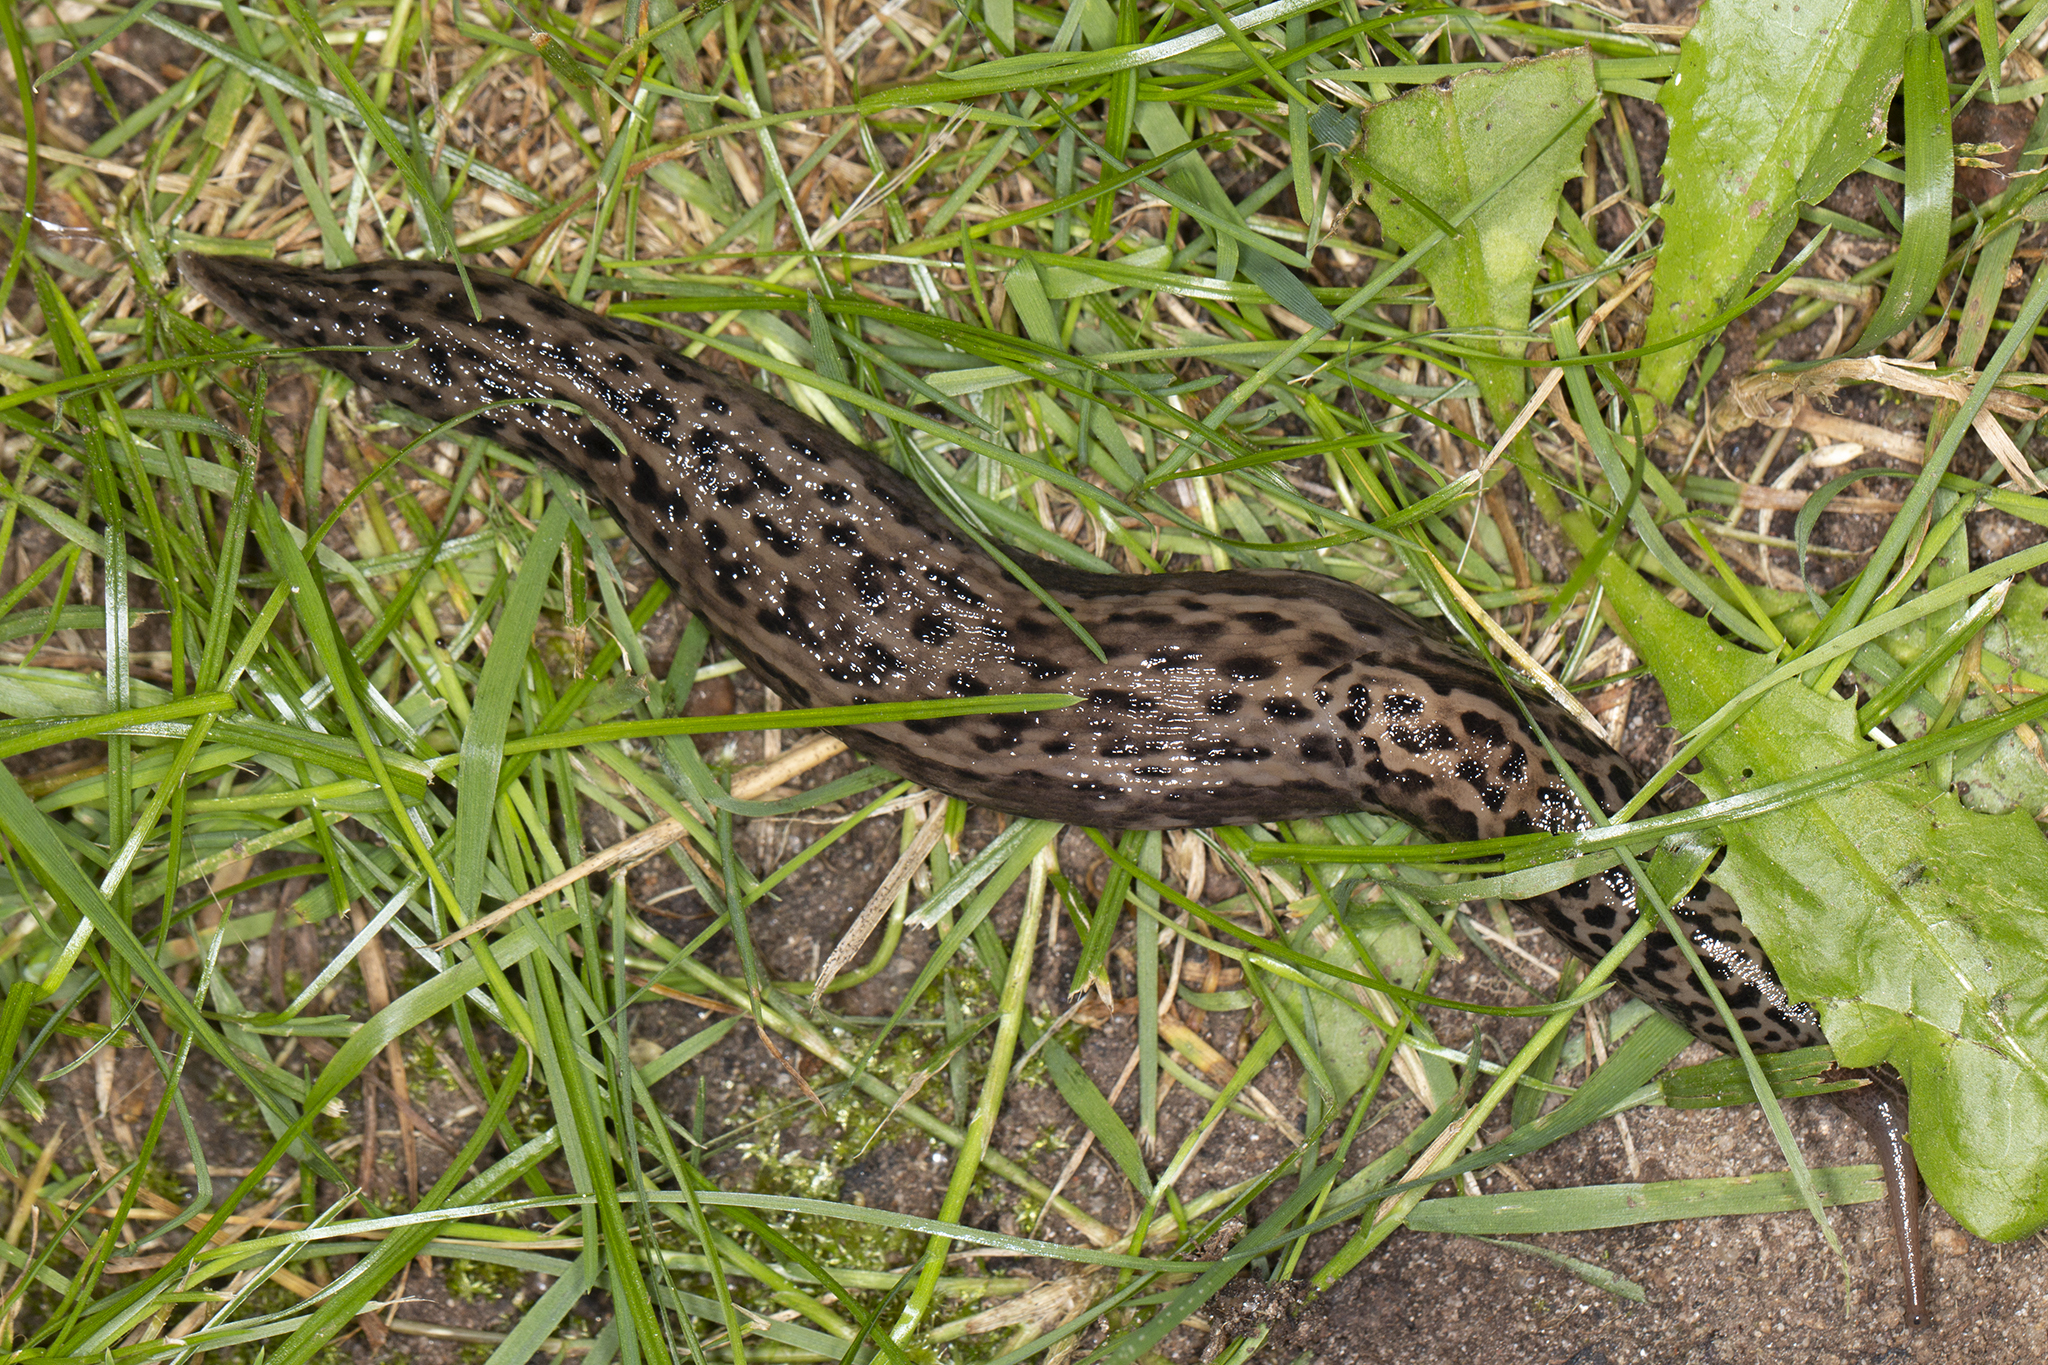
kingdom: Animalia
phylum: Mollusca
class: Gastropoda
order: Stylommatophora
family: Limacidae
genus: Limax
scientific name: Limax maximus
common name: Great grey slug
